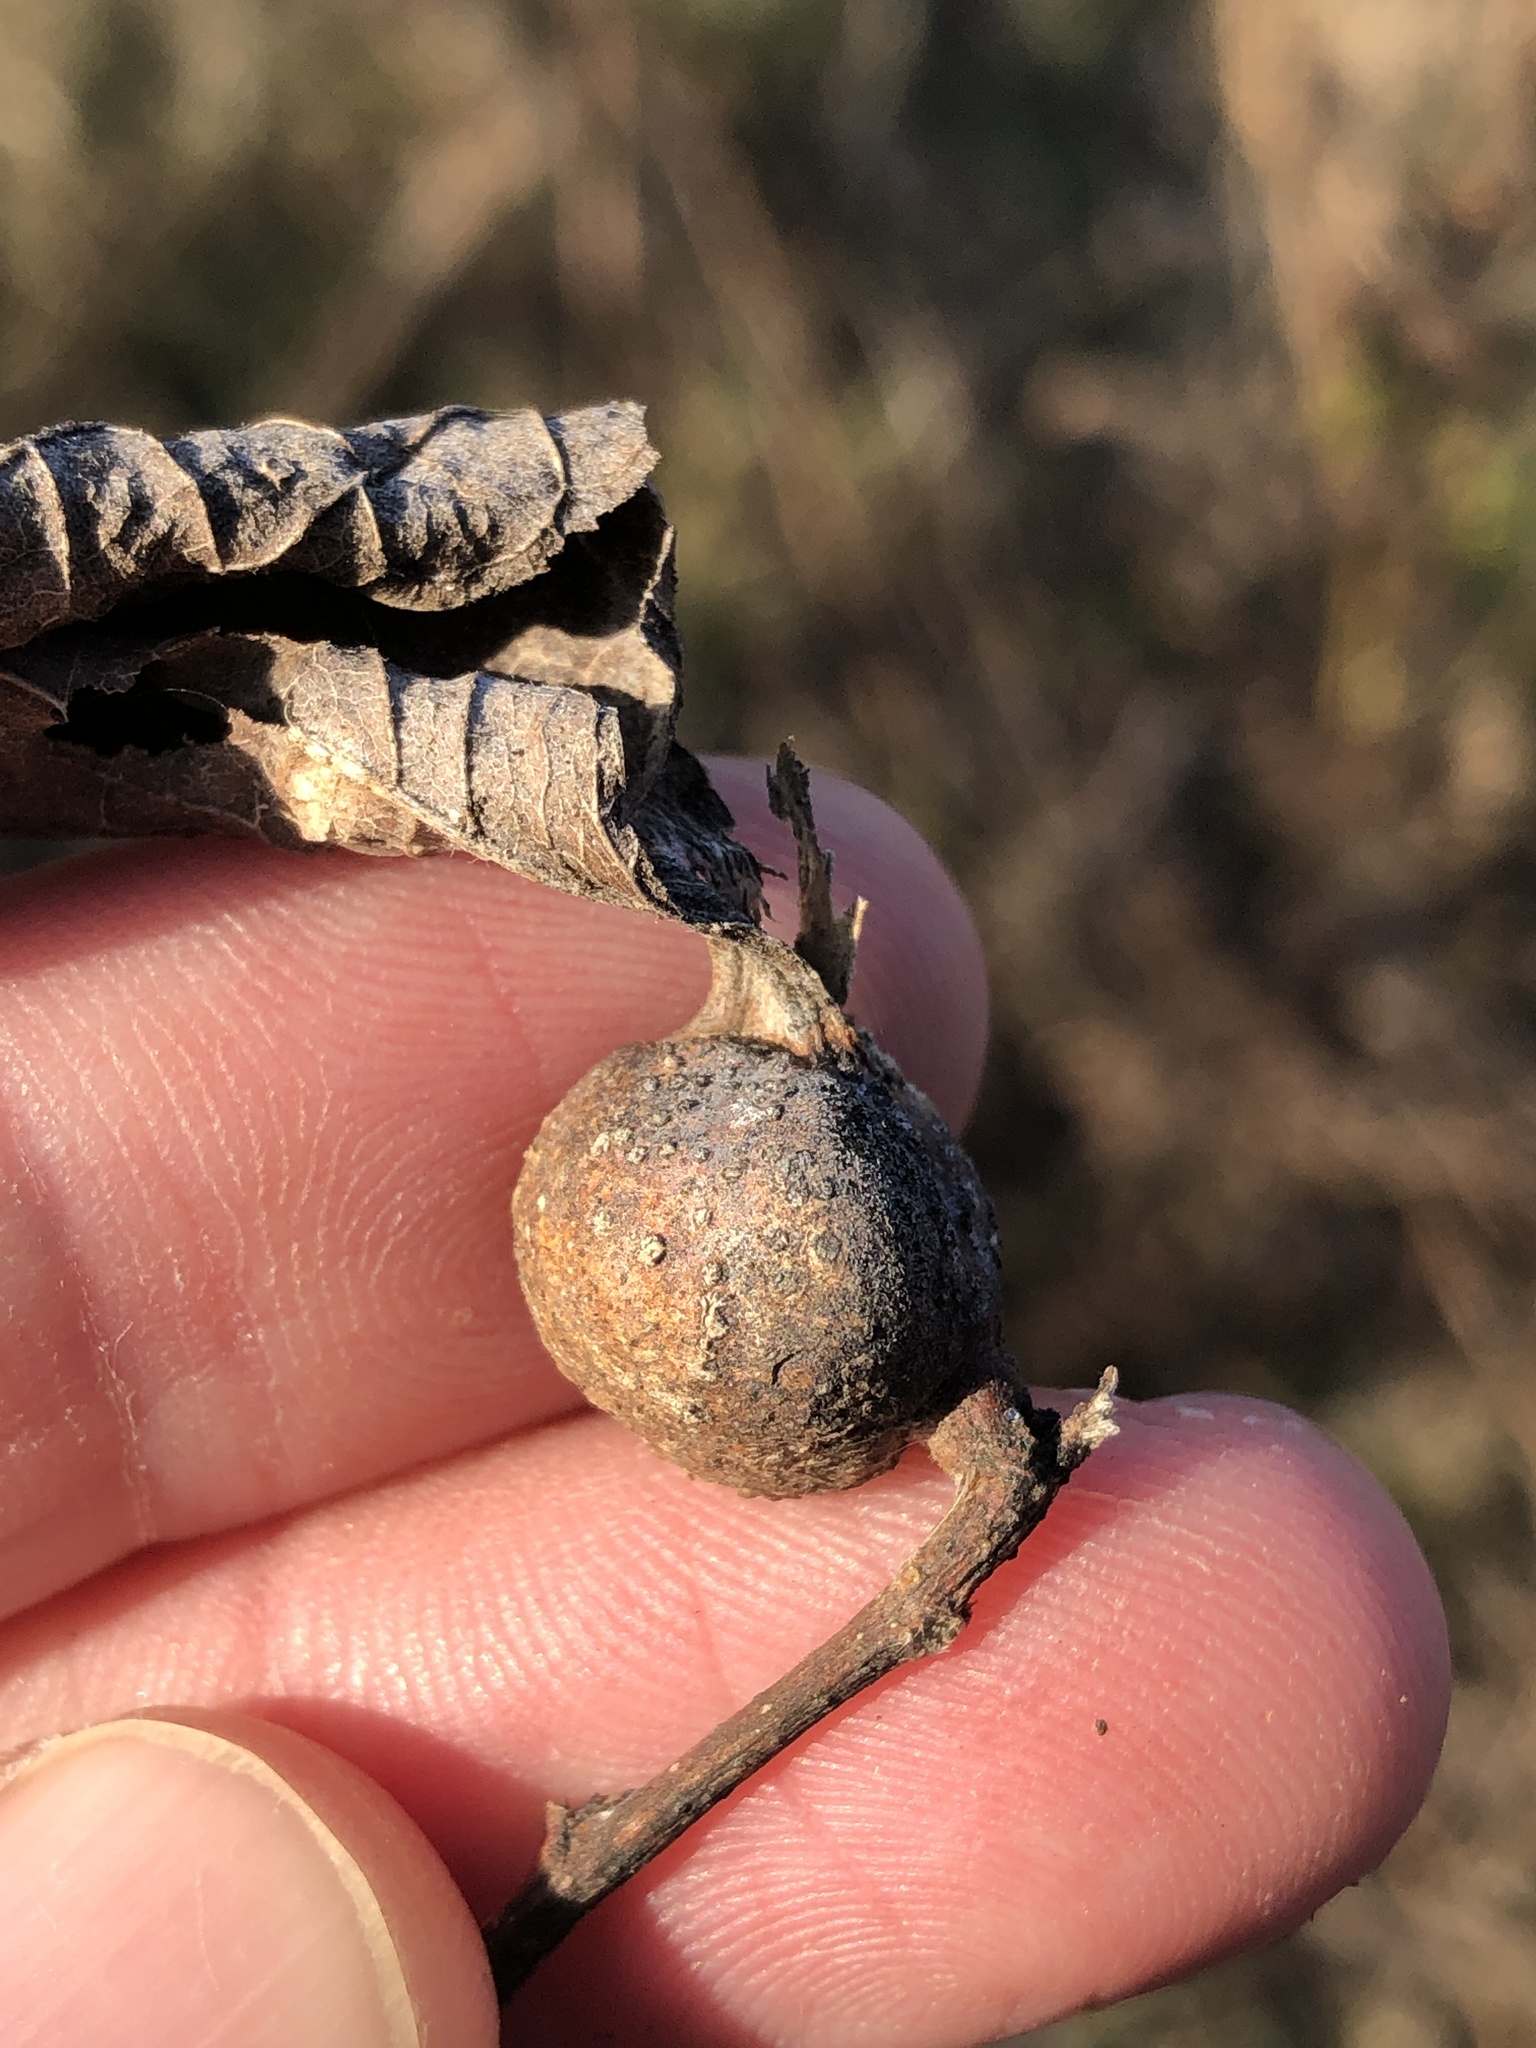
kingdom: Animalia
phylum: Arthropoda
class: Insecta
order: Hemiptera
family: Aphalaridae
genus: Pachypsylla
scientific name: Pachypsylla venusta
